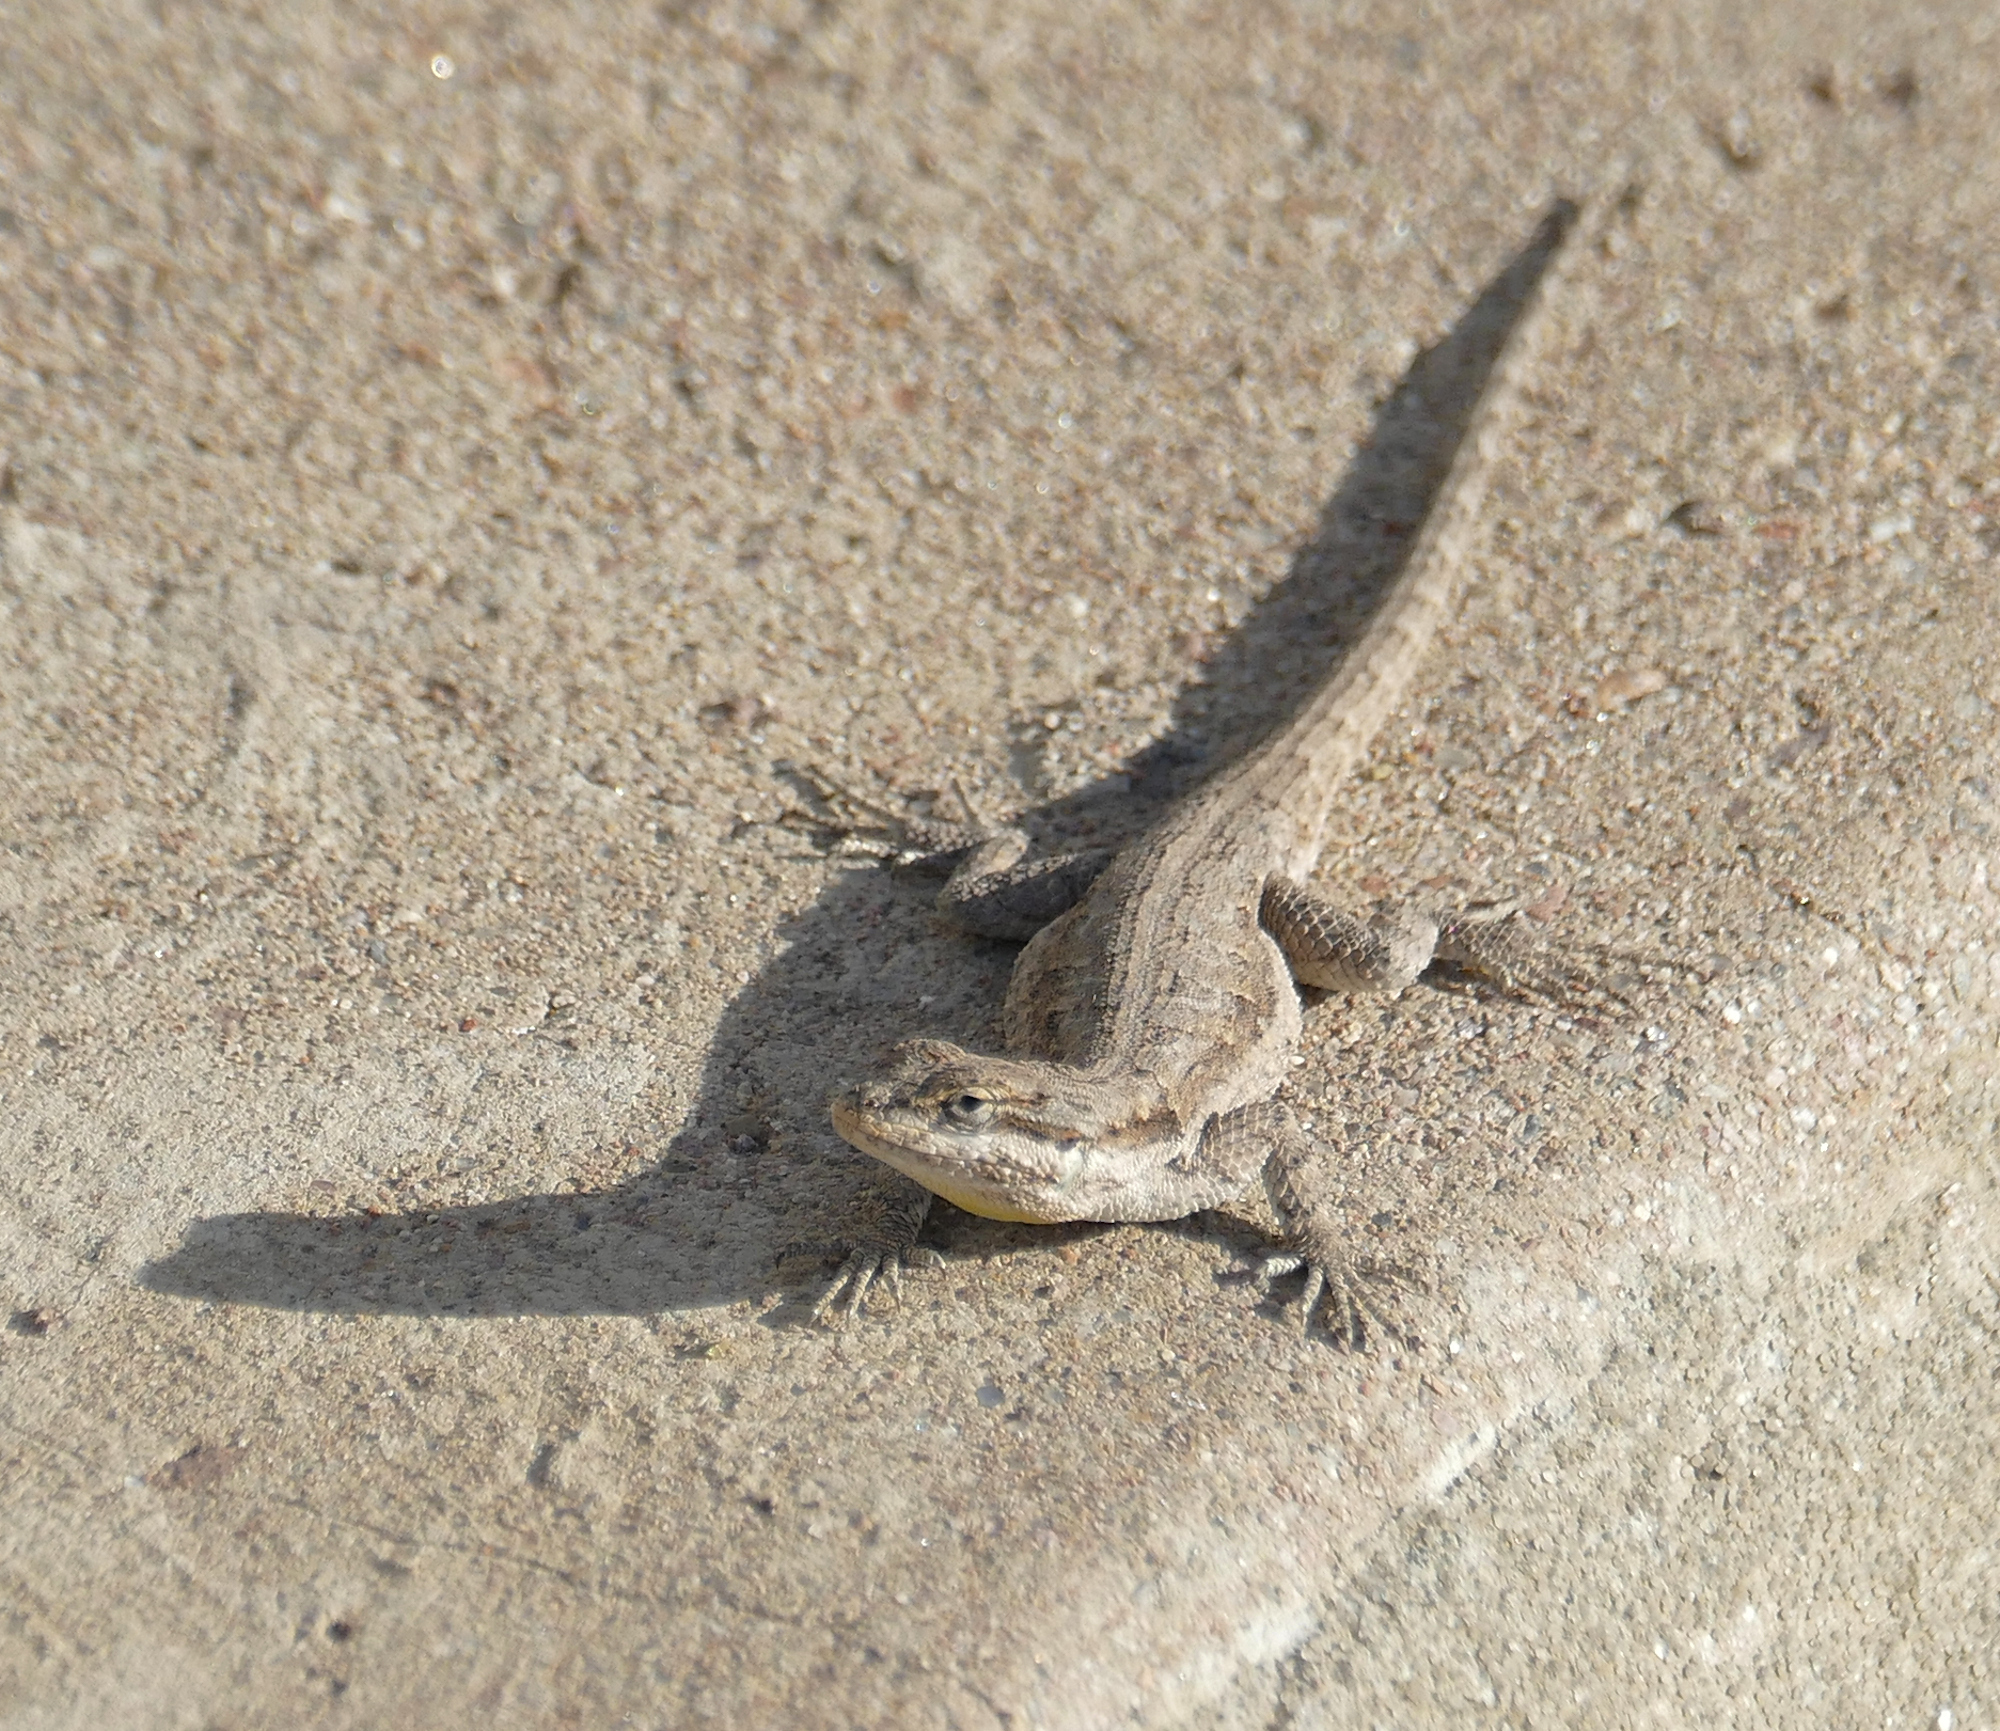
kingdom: Animalia
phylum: Chordata
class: Squamata
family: Phrynosomatidae
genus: Urosaurus
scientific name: Urosaurus ornatus
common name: Ornate tree lizard
